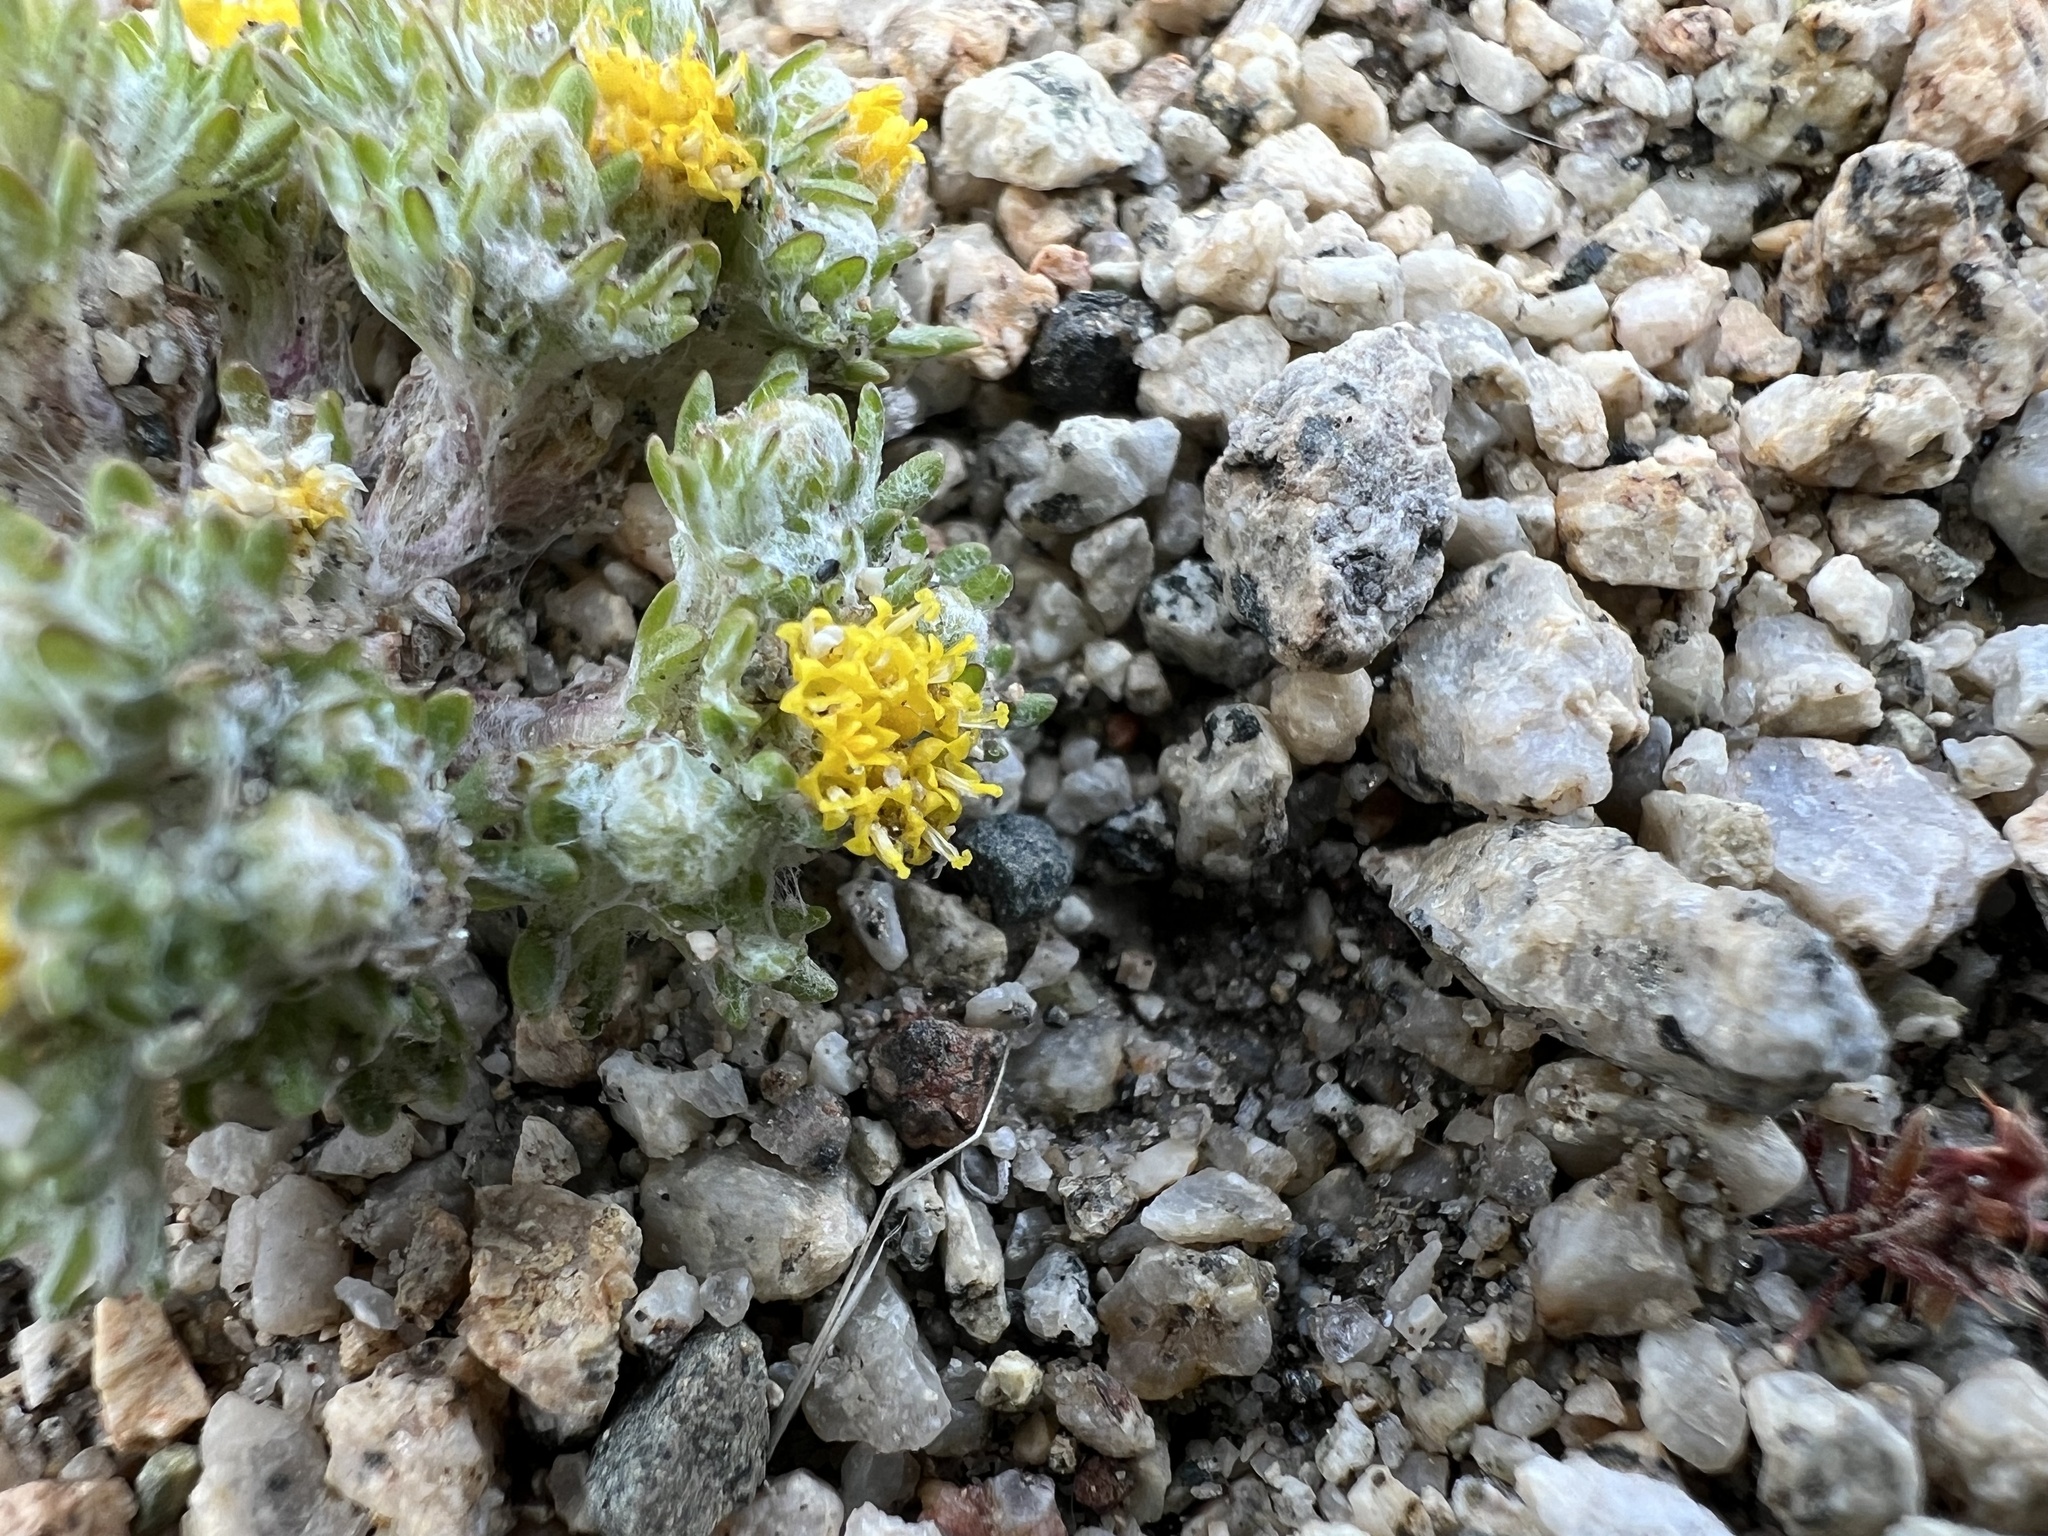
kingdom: Plantae
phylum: Tracheophyta
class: Magnoliopsida
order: Asterales
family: Asteraceae
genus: Eriophyllum
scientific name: Eriophyllum pringlei
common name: Pringle's woolly-sunflower
